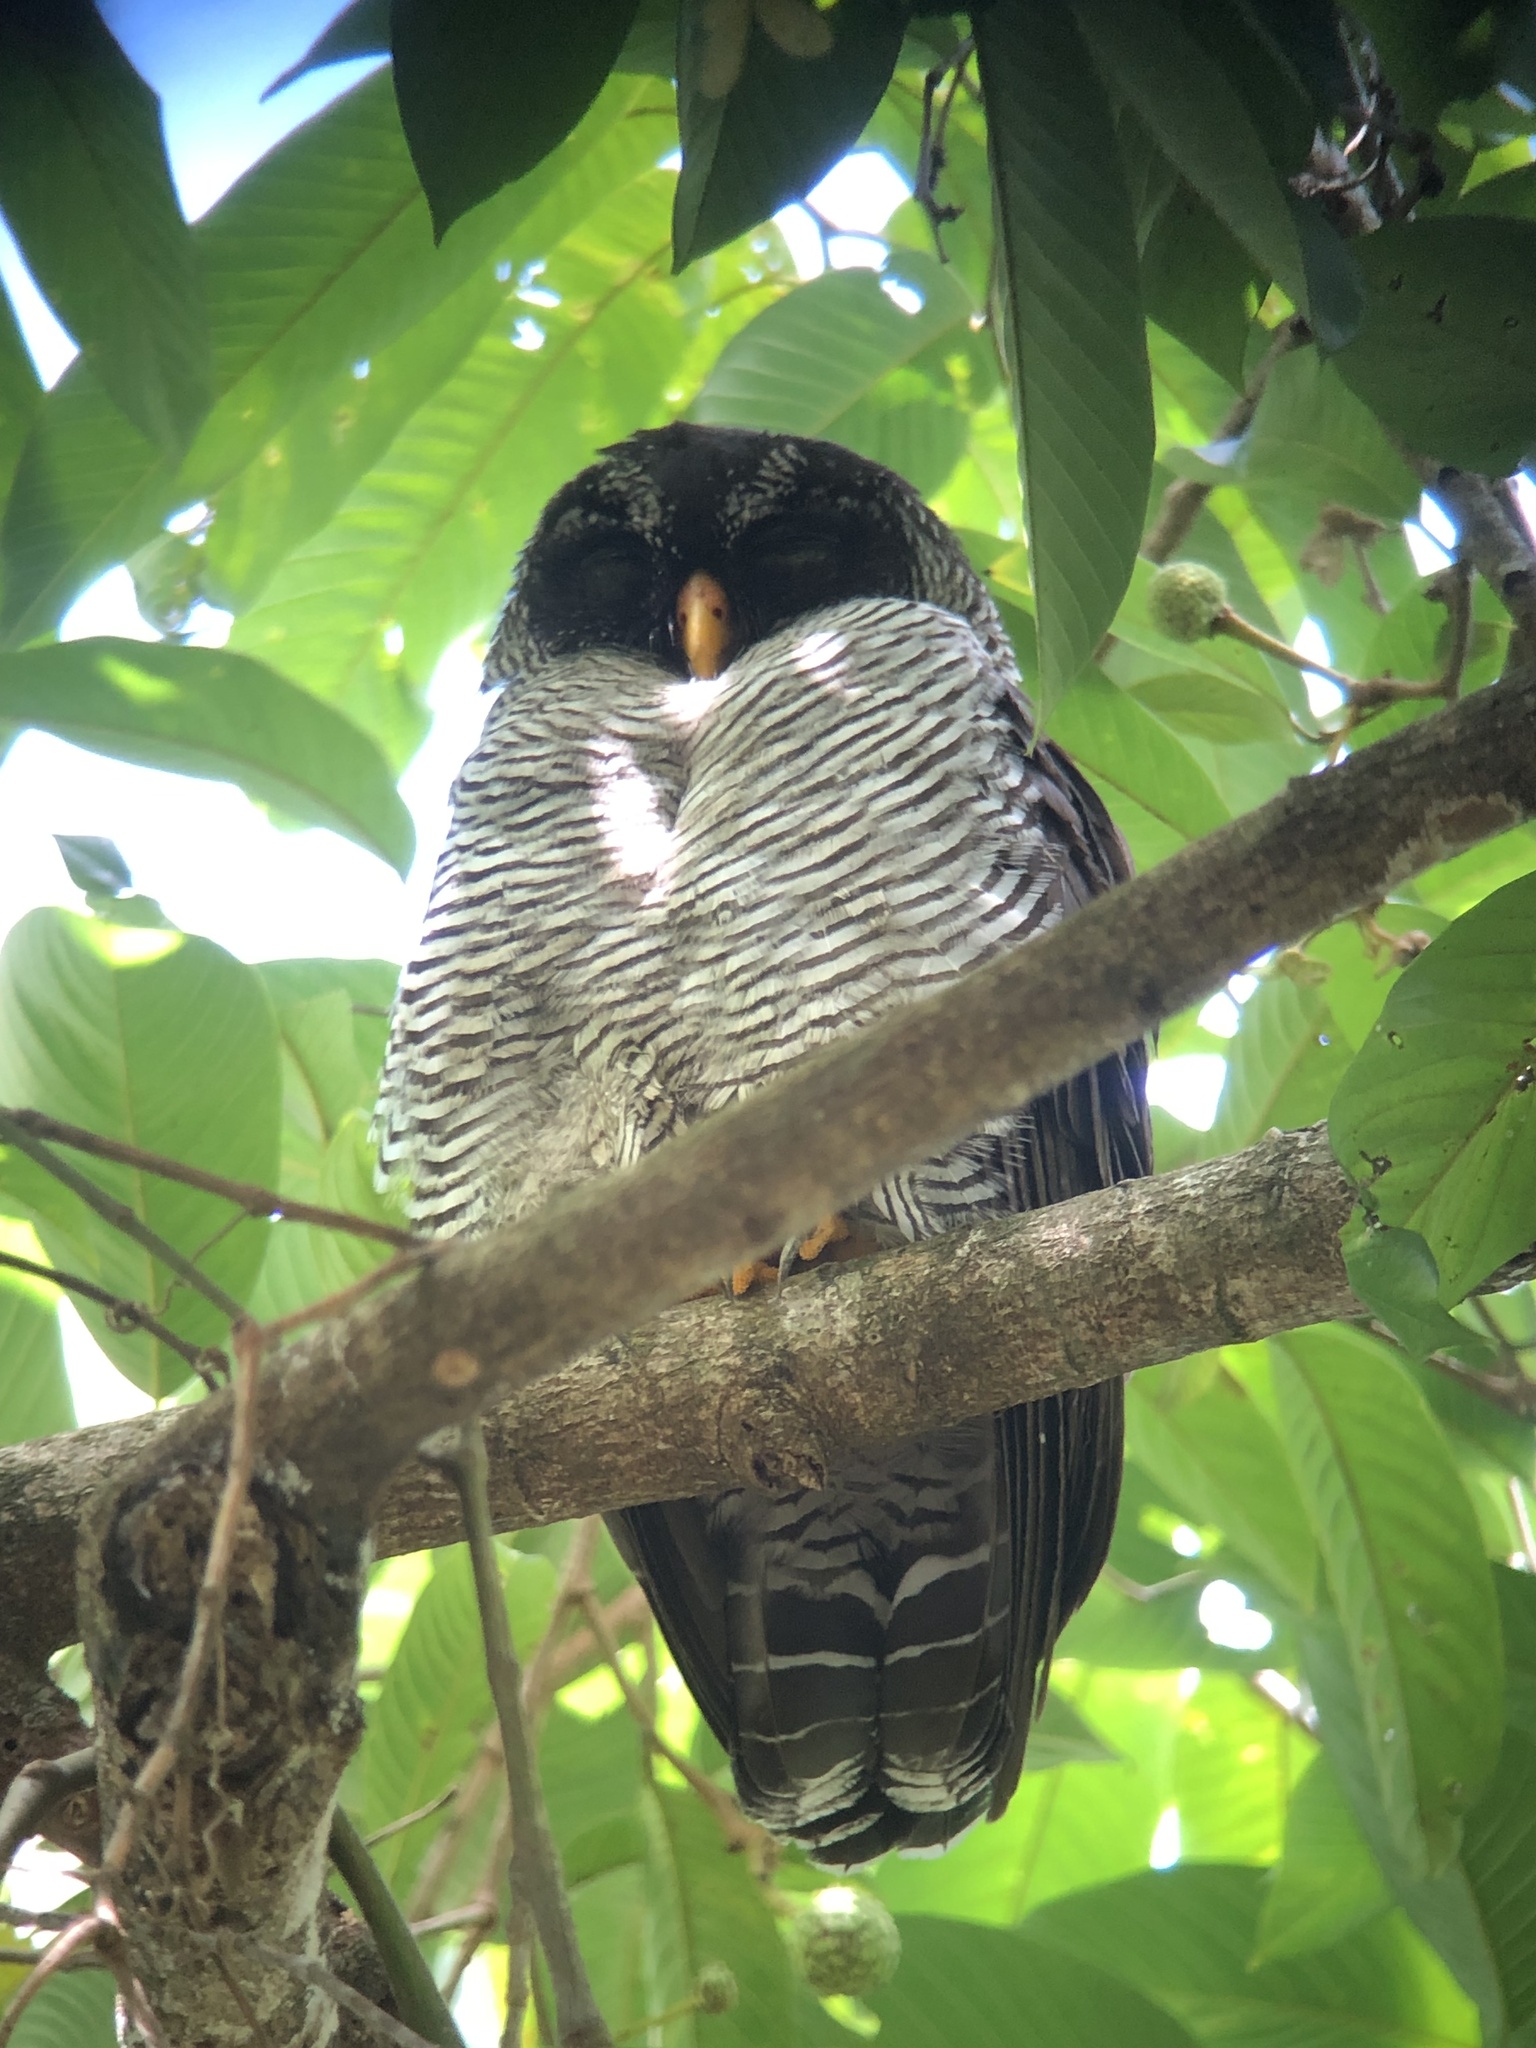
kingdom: Animalia
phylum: Chordata
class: Aves
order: Strigiformes
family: Strigidae
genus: Strix
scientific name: Strix nigrolineata
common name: Black-and-white owl
